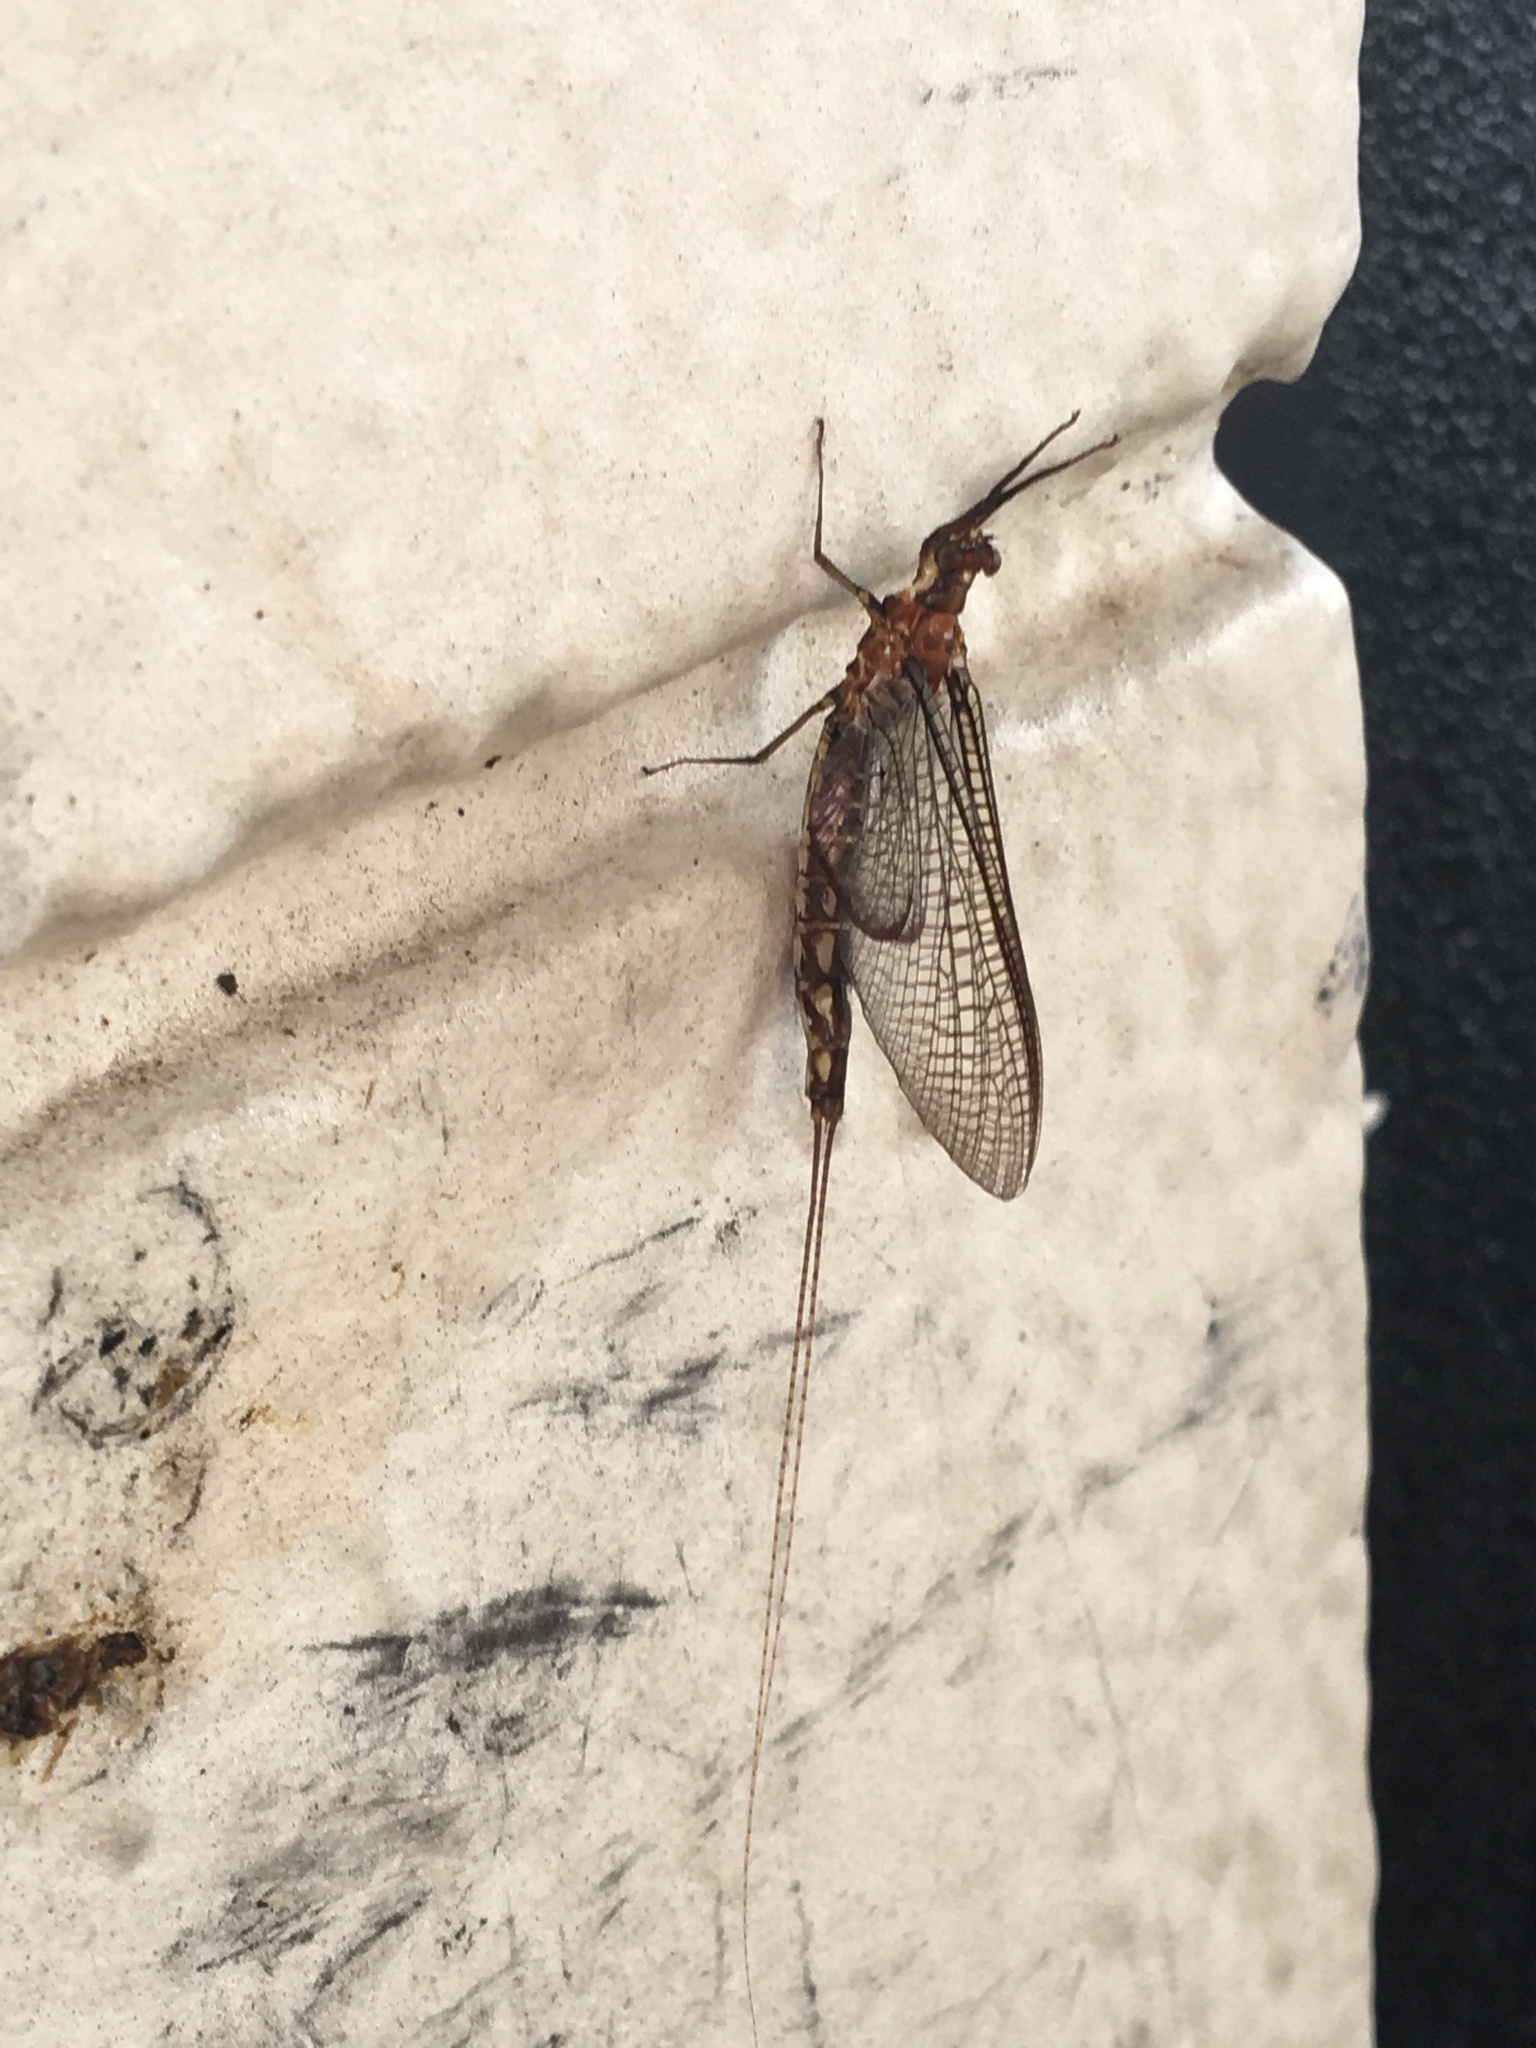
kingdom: Animalia
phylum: Arthropoda
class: Insecta
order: Ephemeroptera
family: Ephemeridae
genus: Hexagenia
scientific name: Hexagenia bilineata
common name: Emergent mayfly
